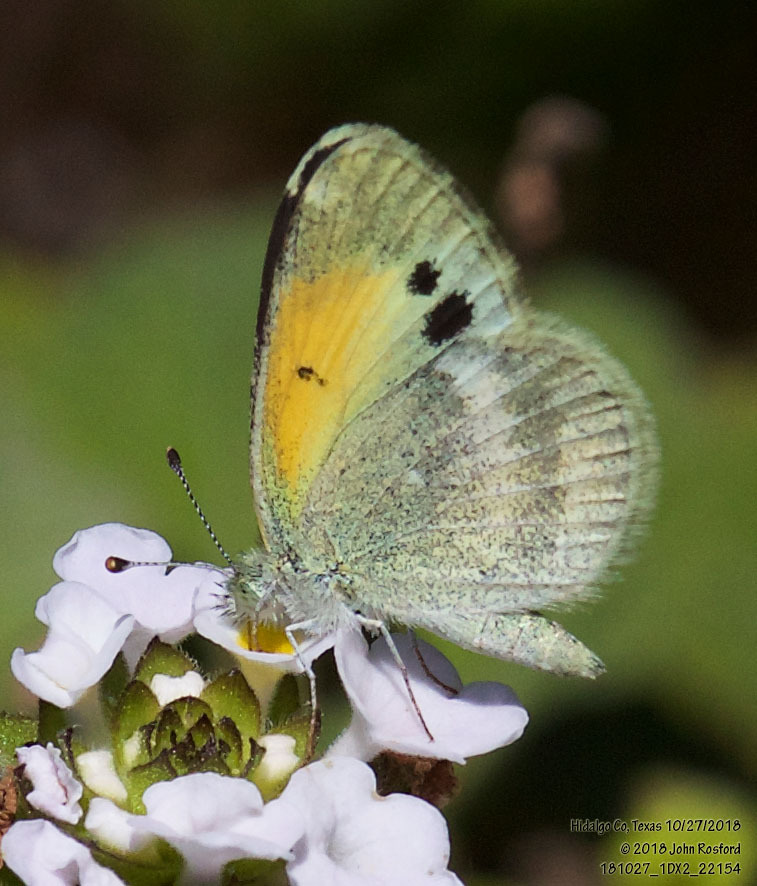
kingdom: Animalia
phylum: Arthropoda
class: Insecta
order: Lepidoptera
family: Pieridae
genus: Nathalis
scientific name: Nathalis iole
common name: Dainty sulphur
